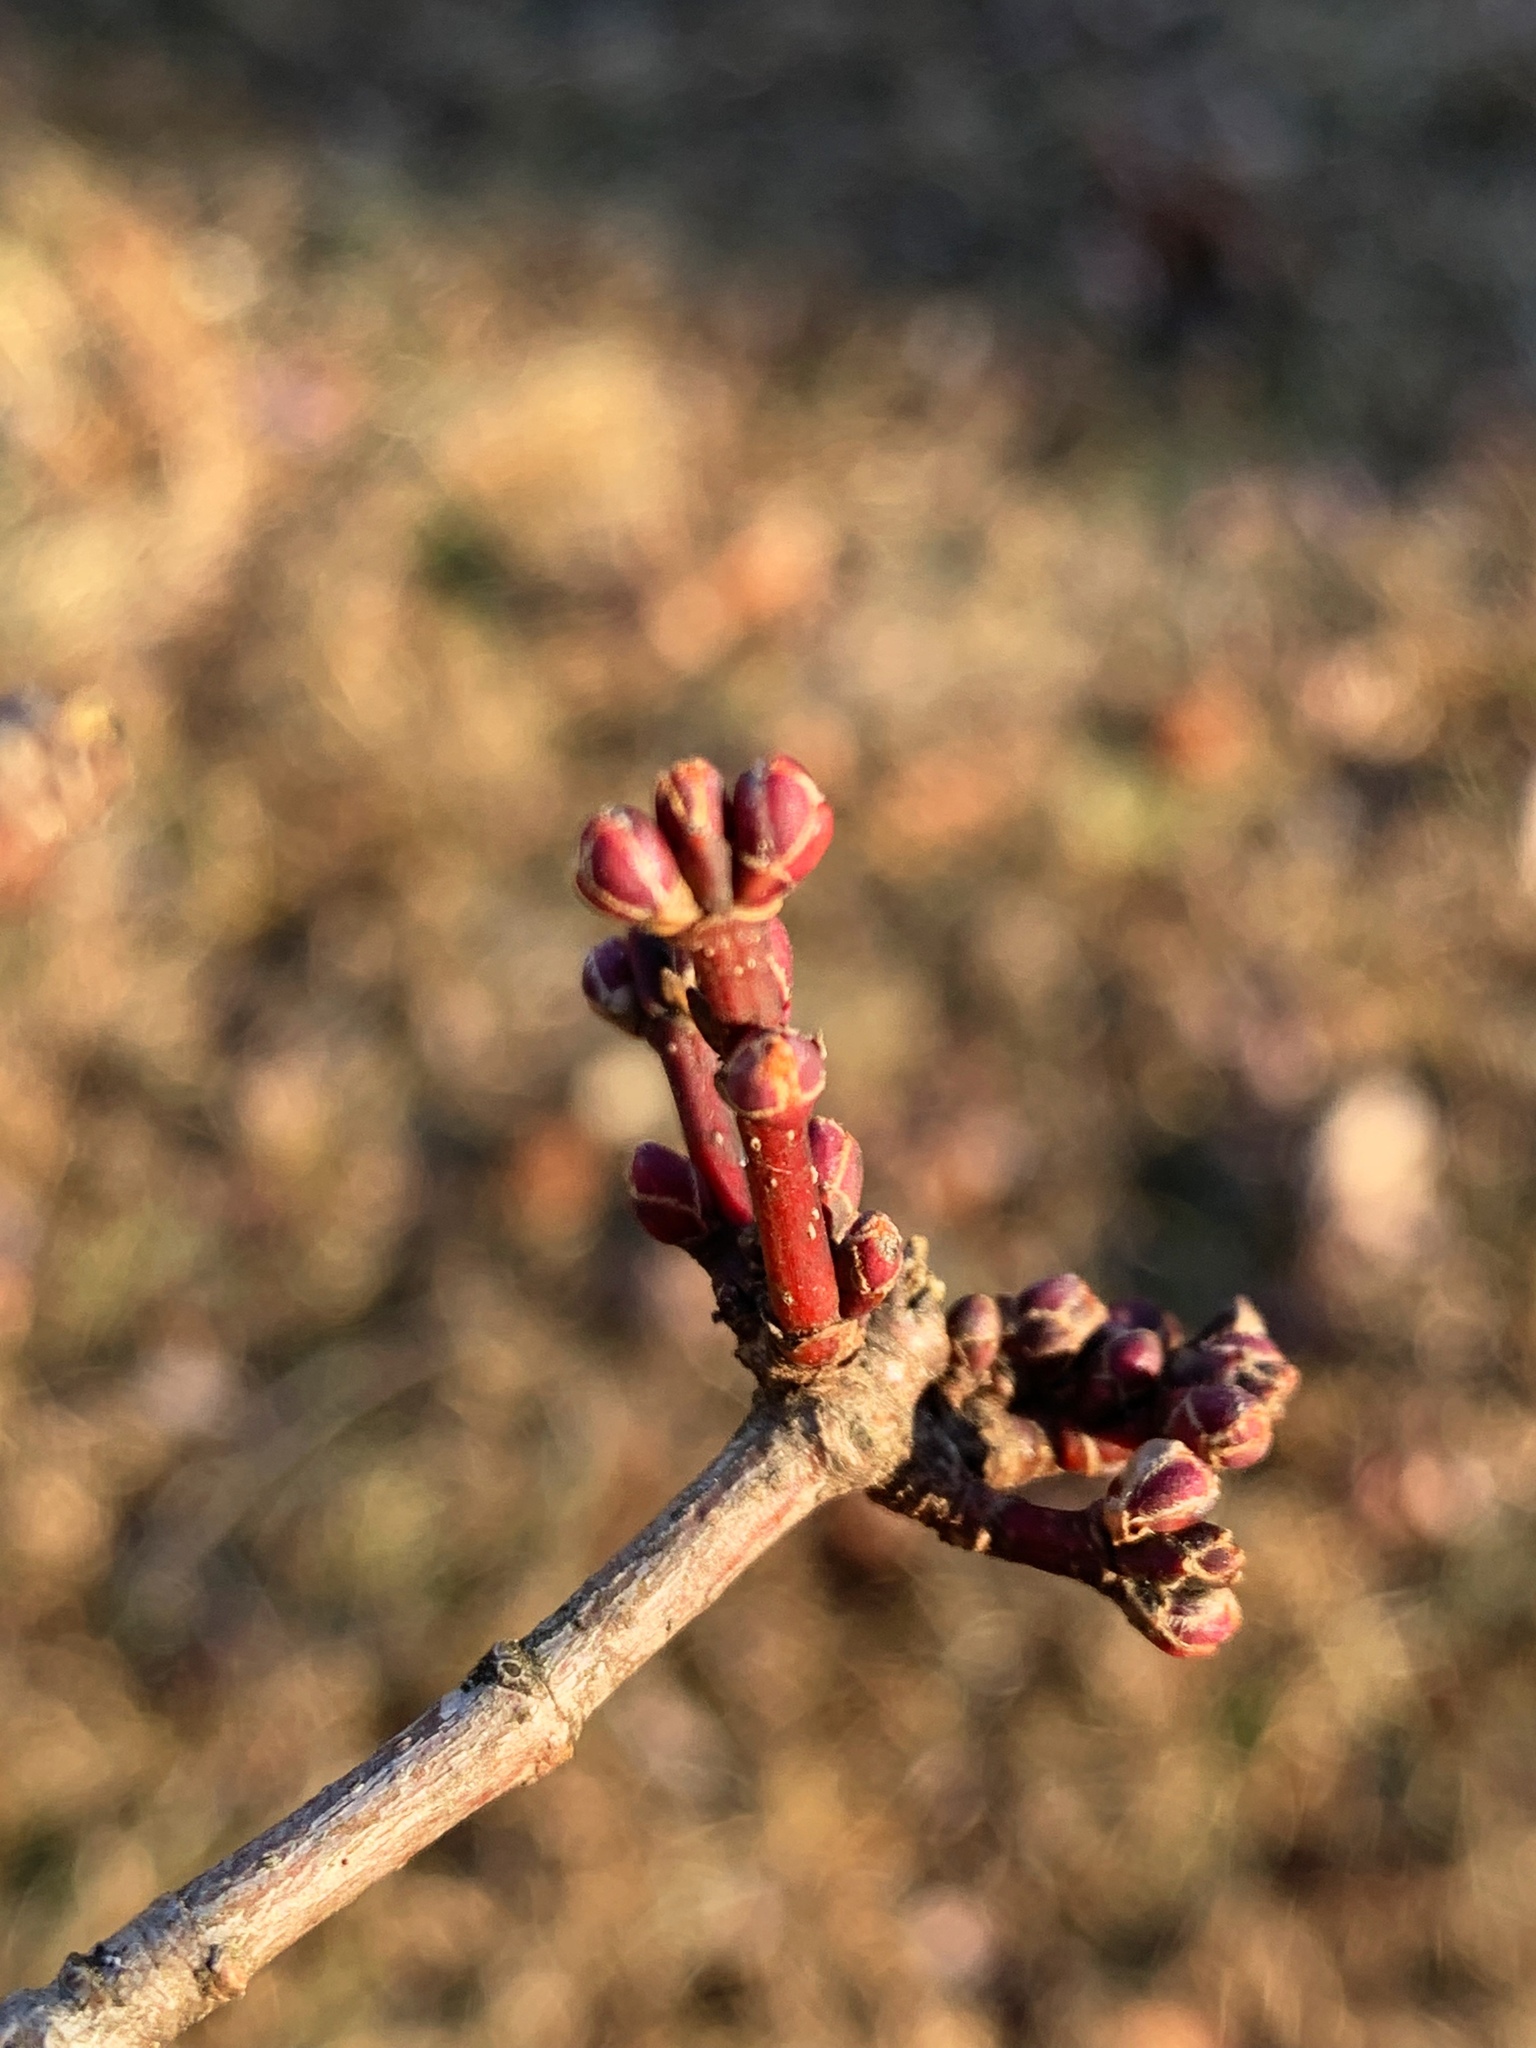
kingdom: Plantae
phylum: Tracheophyta
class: Magnoliopsida
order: Sapindales
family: Sapindaceae
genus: Acer
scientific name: Acer rubrum
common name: Red maple
